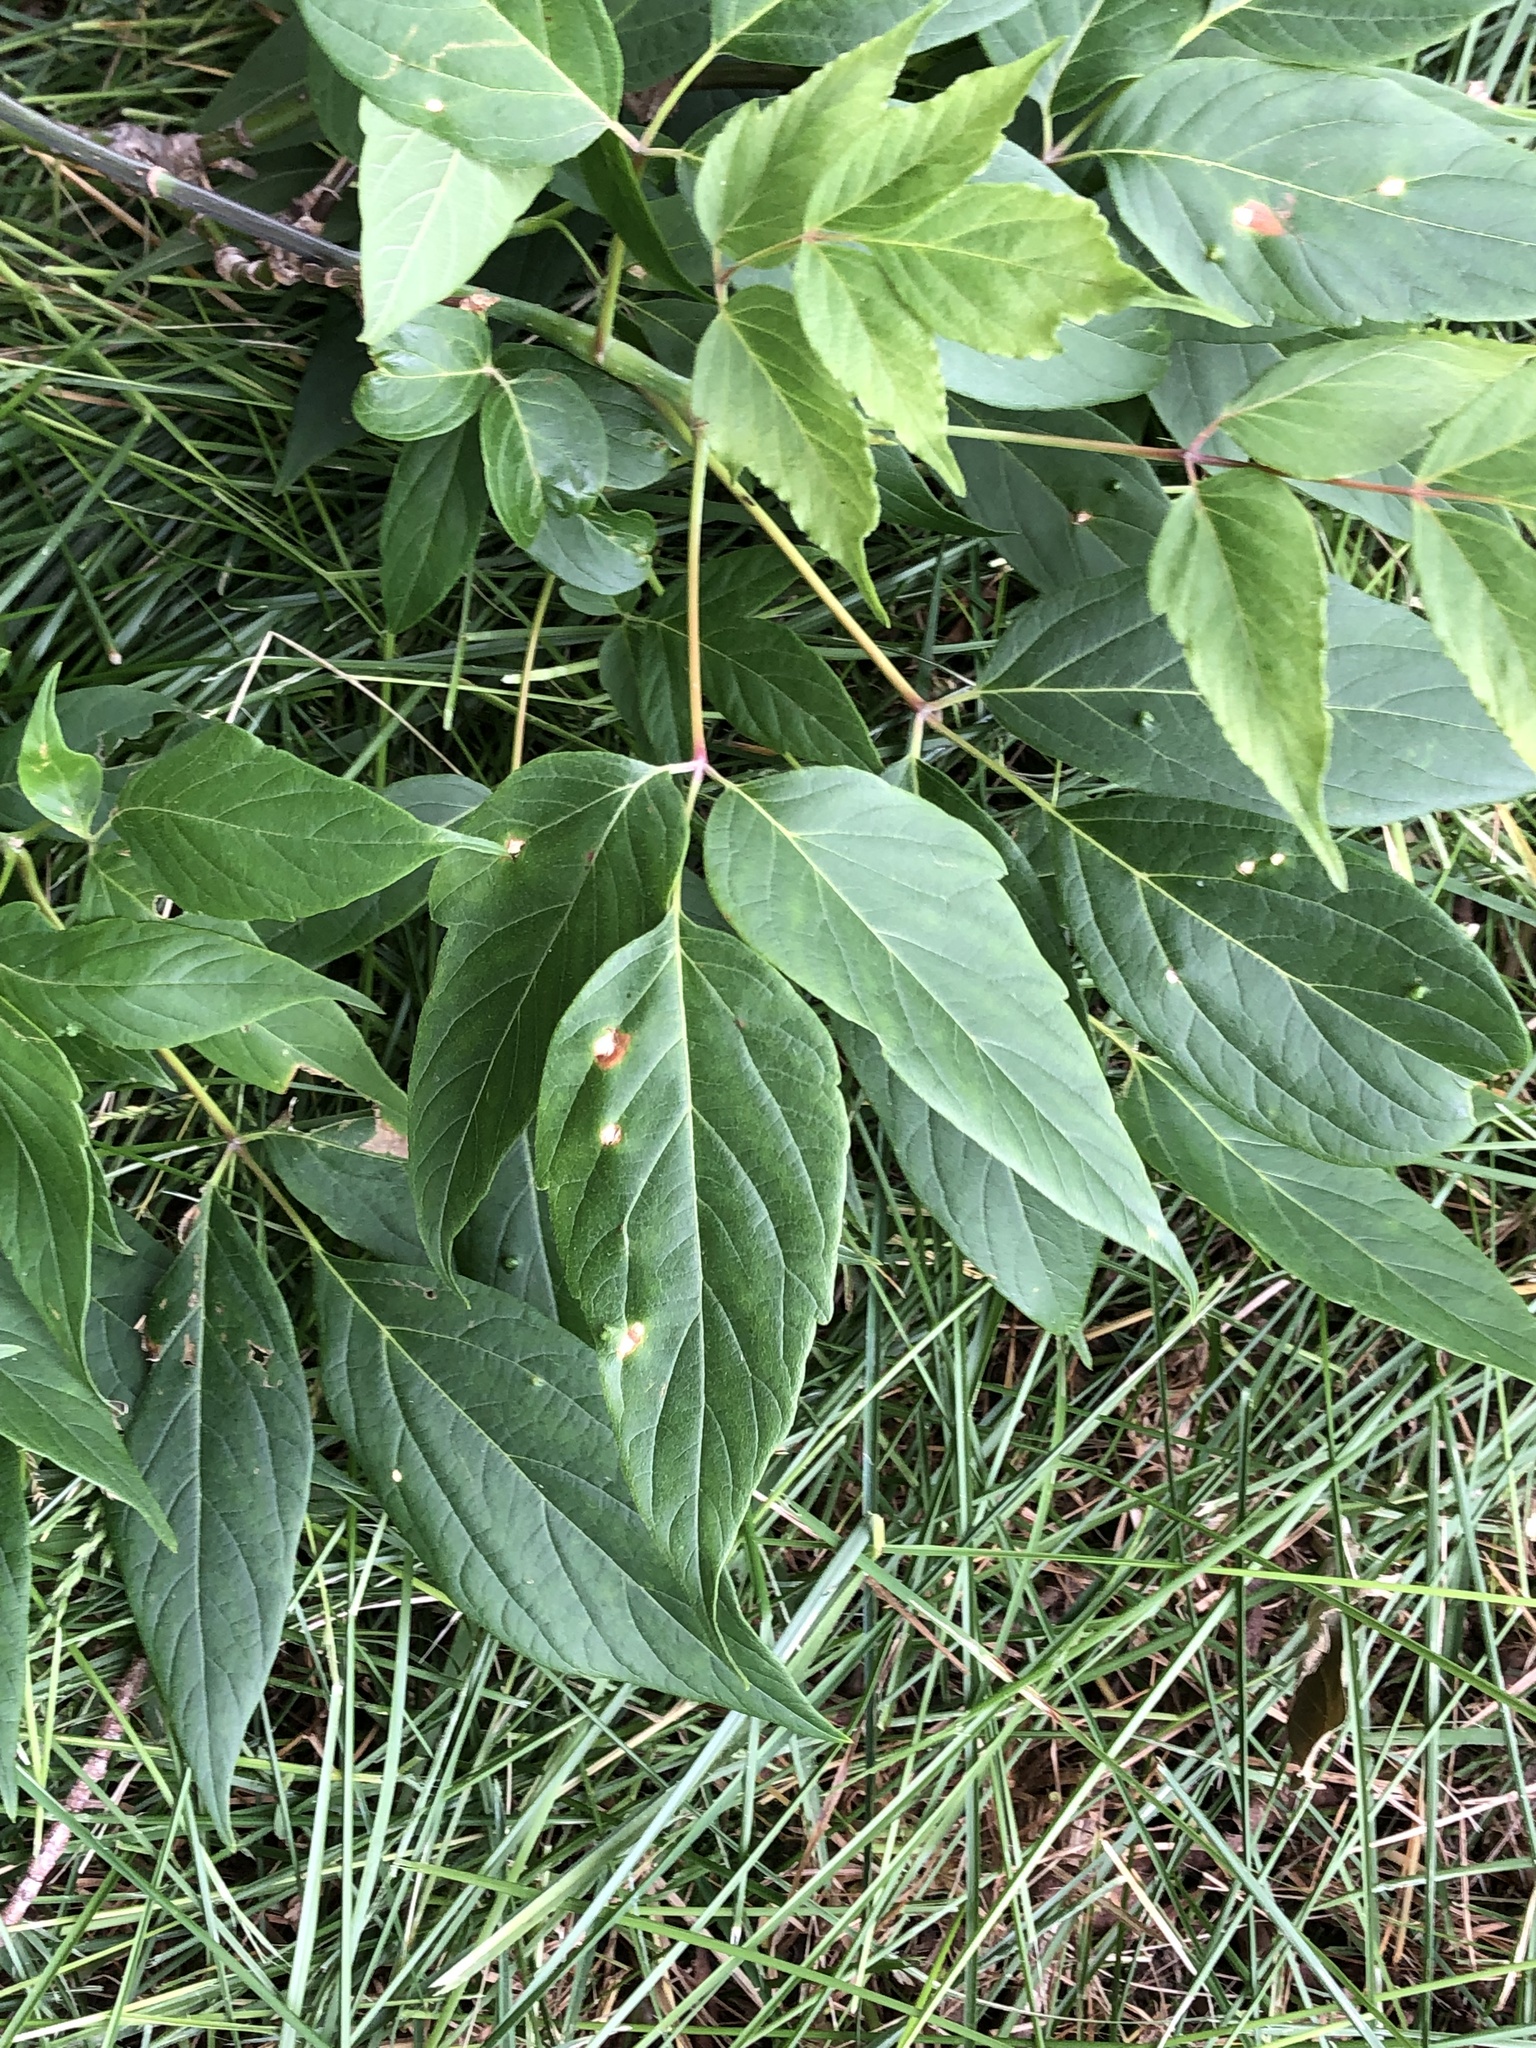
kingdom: Plantae
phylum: Tracheophyta
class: Magnoliopsida
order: Sapindales
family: Sapindaceae
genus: Acer
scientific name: Acer negundo
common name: Ashleaf maple
